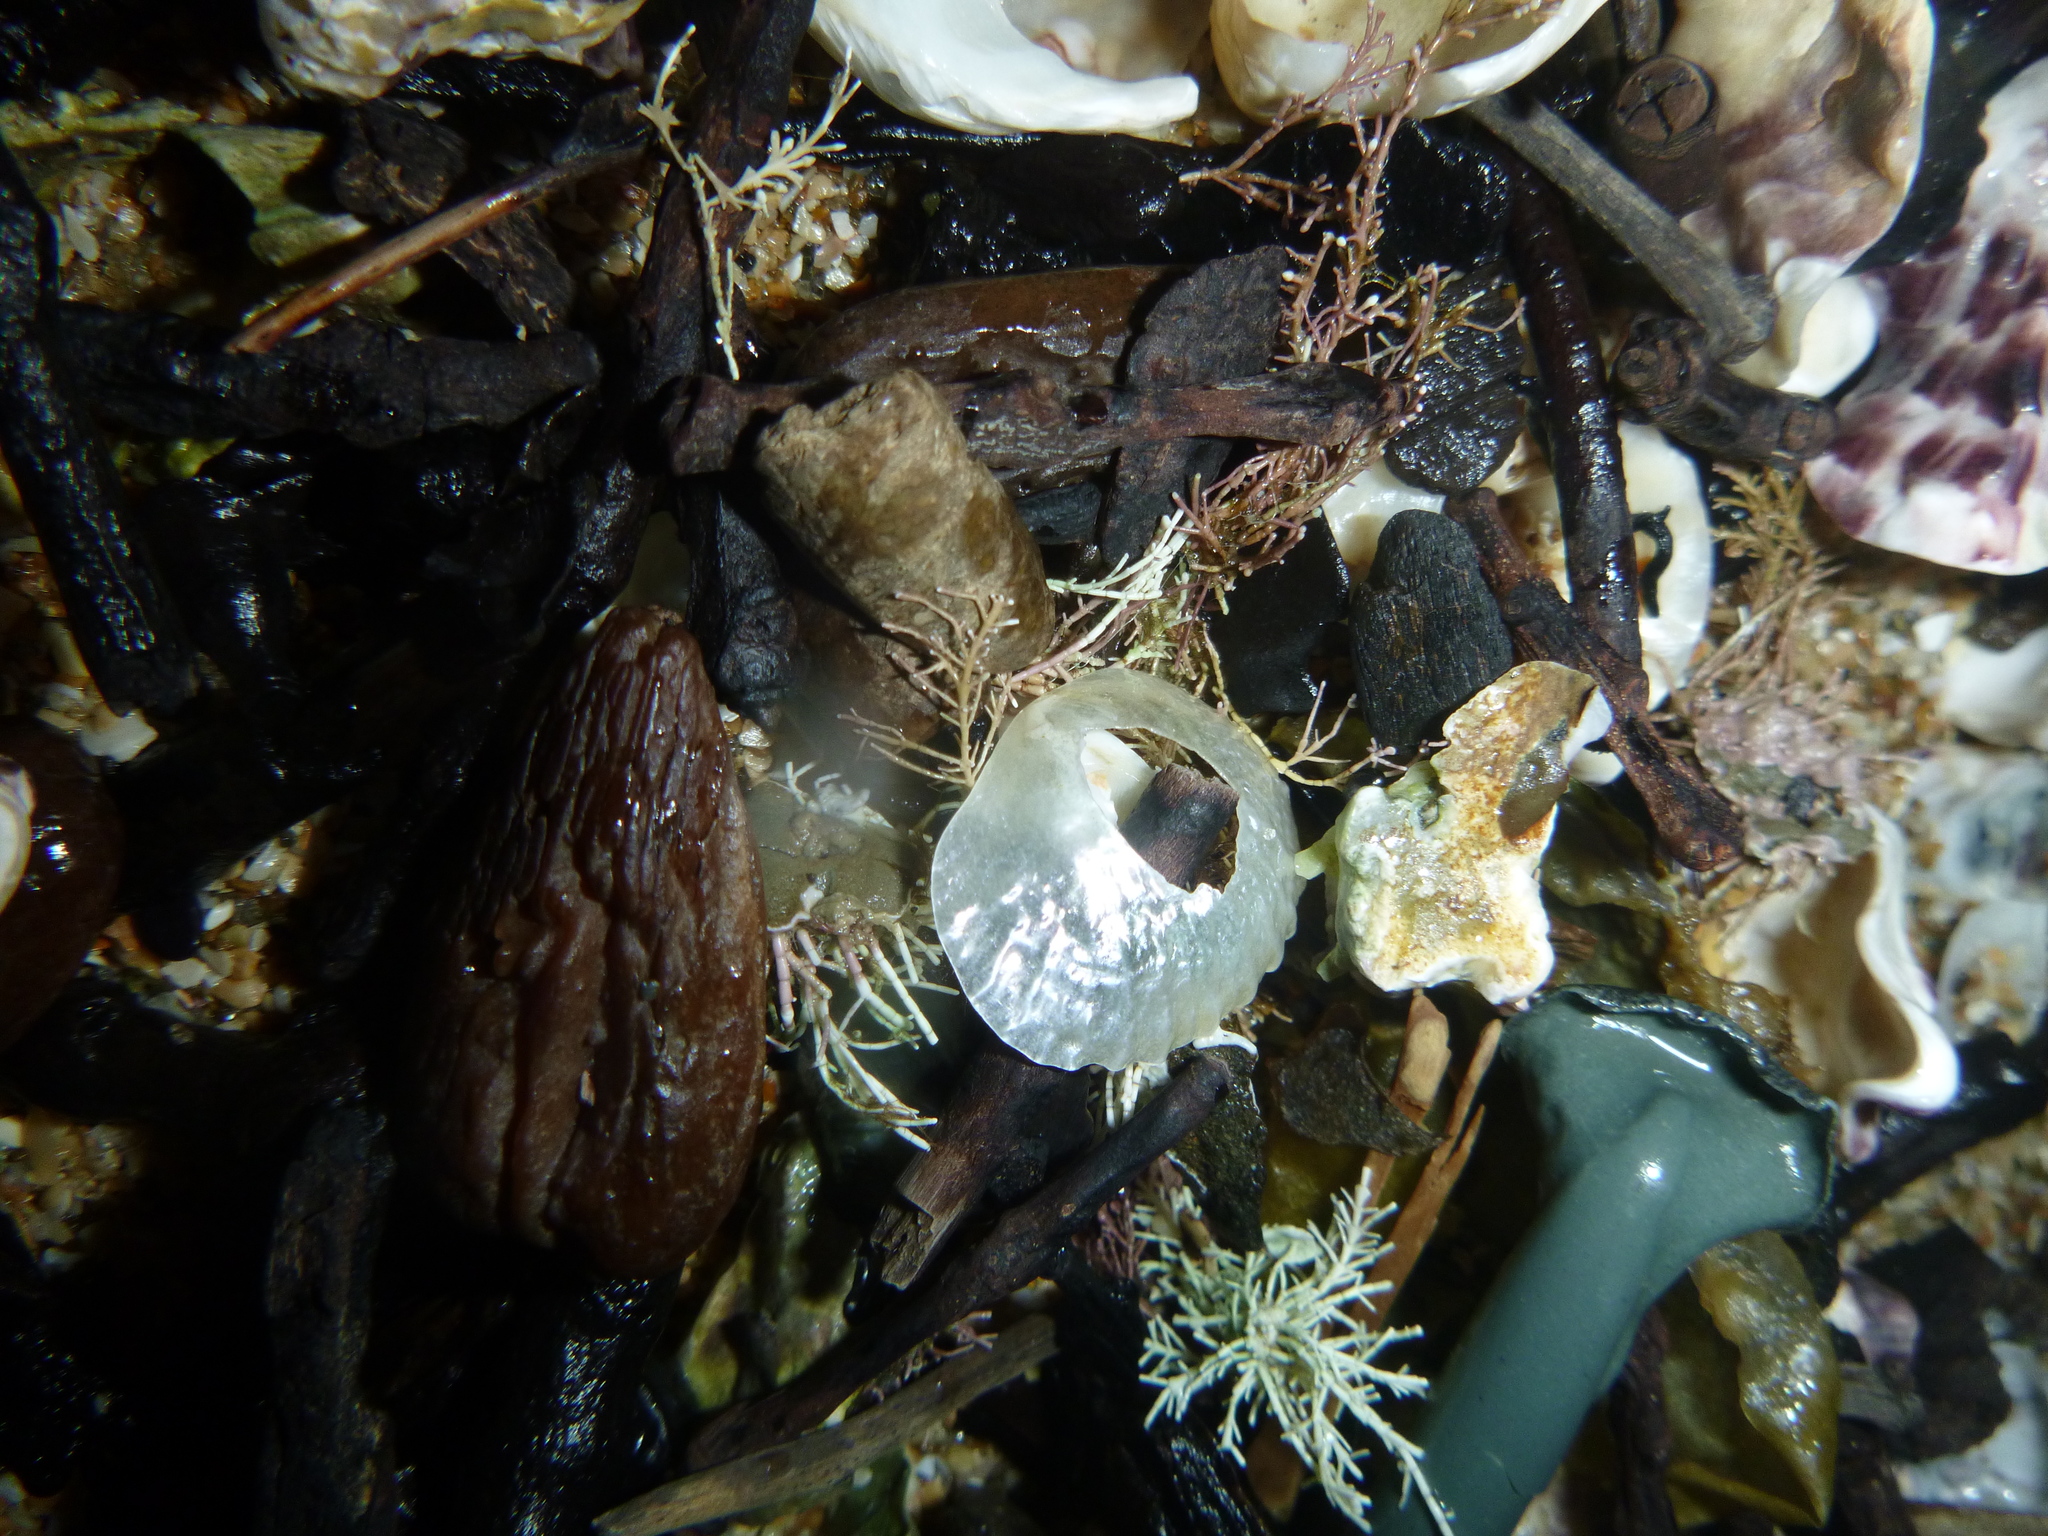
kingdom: Animalia
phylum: Mollusca
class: Bivalvia
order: Pectinida
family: Anomiidae
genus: Anomia
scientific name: Anomia trigonopsis
